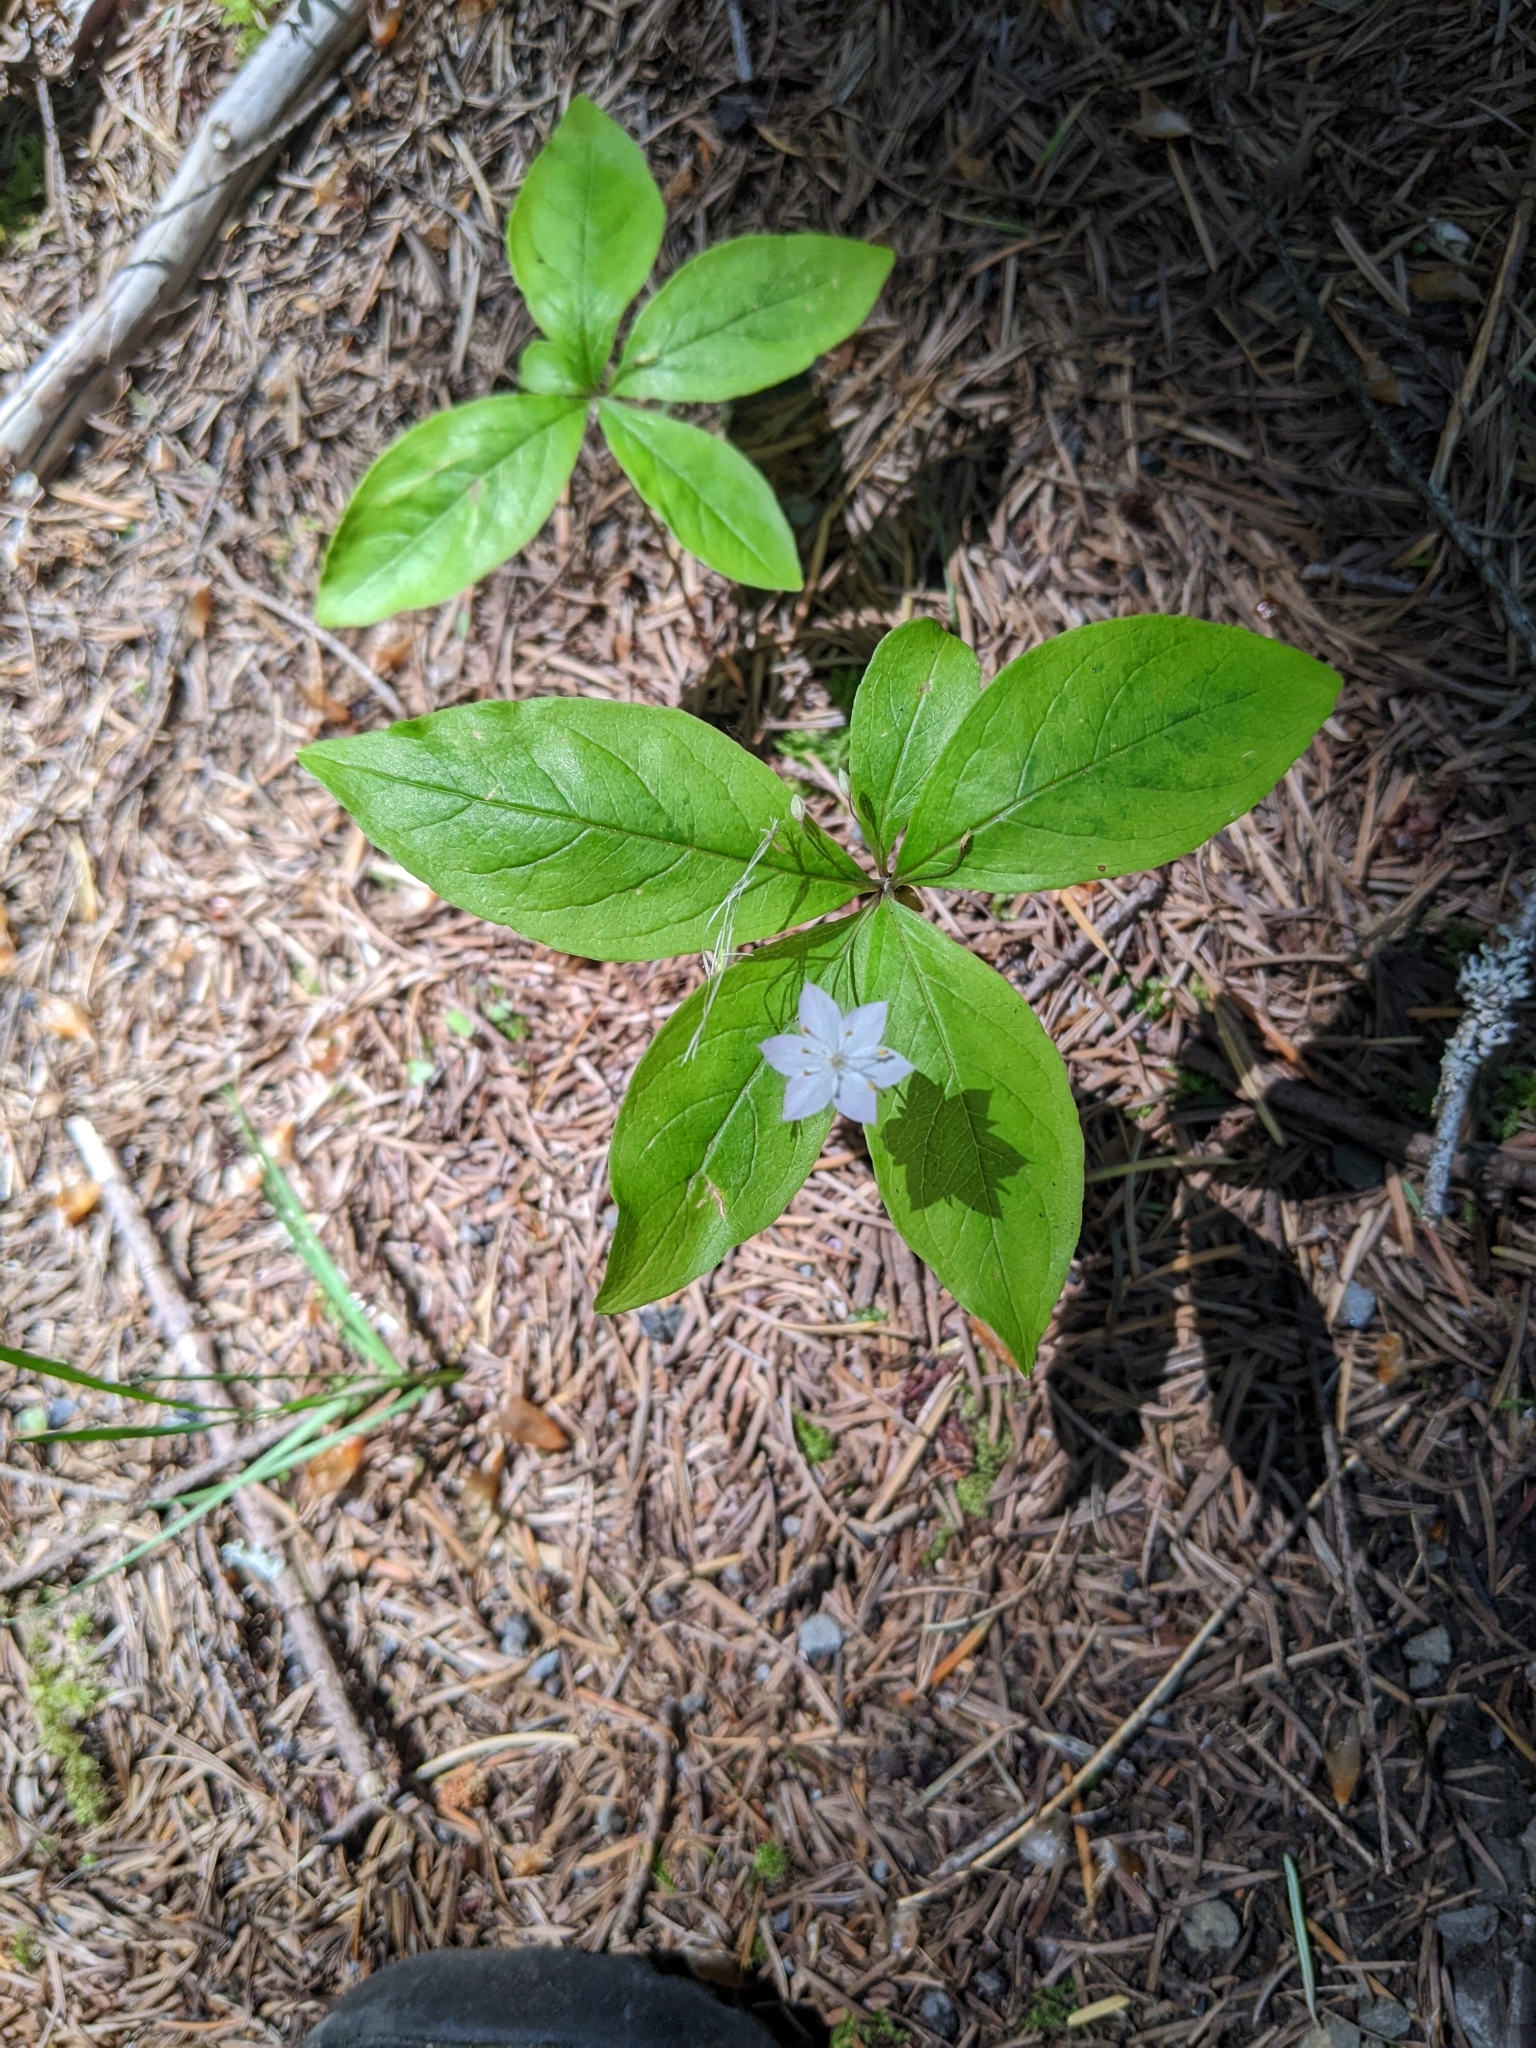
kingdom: Plantae
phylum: Tracheophyta
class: Magnoliopsida
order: Ericales
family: Primulaceae
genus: Lysimachia
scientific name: Lysimachia latifolia
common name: Pacific starflower
